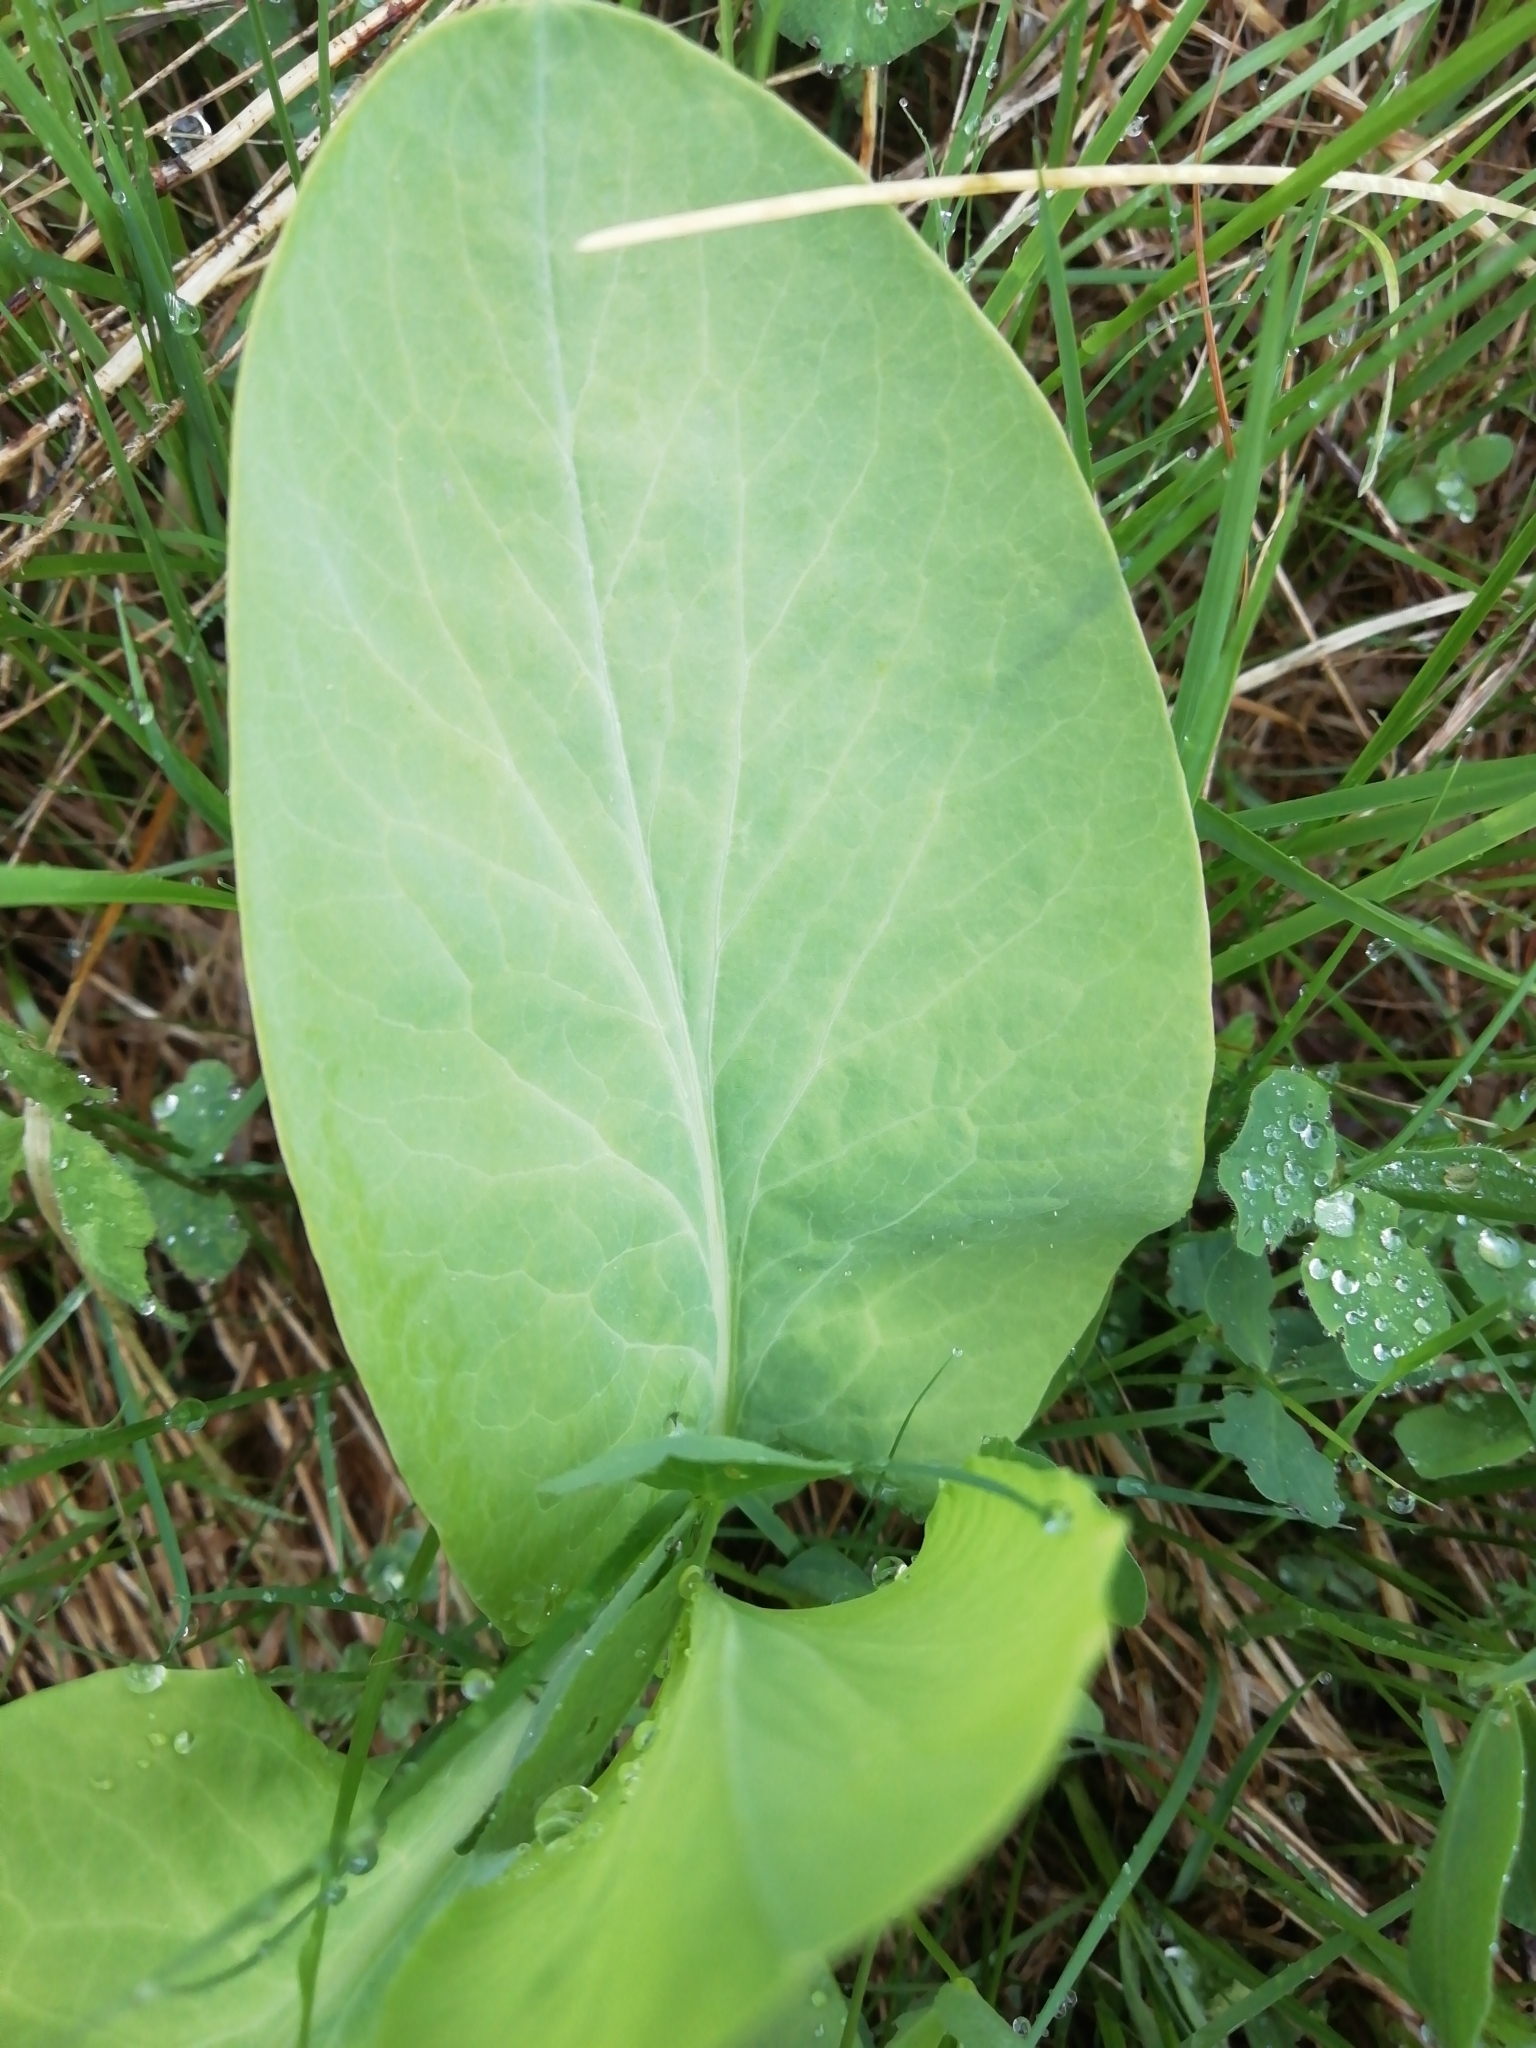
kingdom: Plantae
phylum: Tracheophyta
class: Magnoliopsida
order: Apiales
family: Apiaceae
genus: Bupleurum
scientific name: Bupleurum aureum
